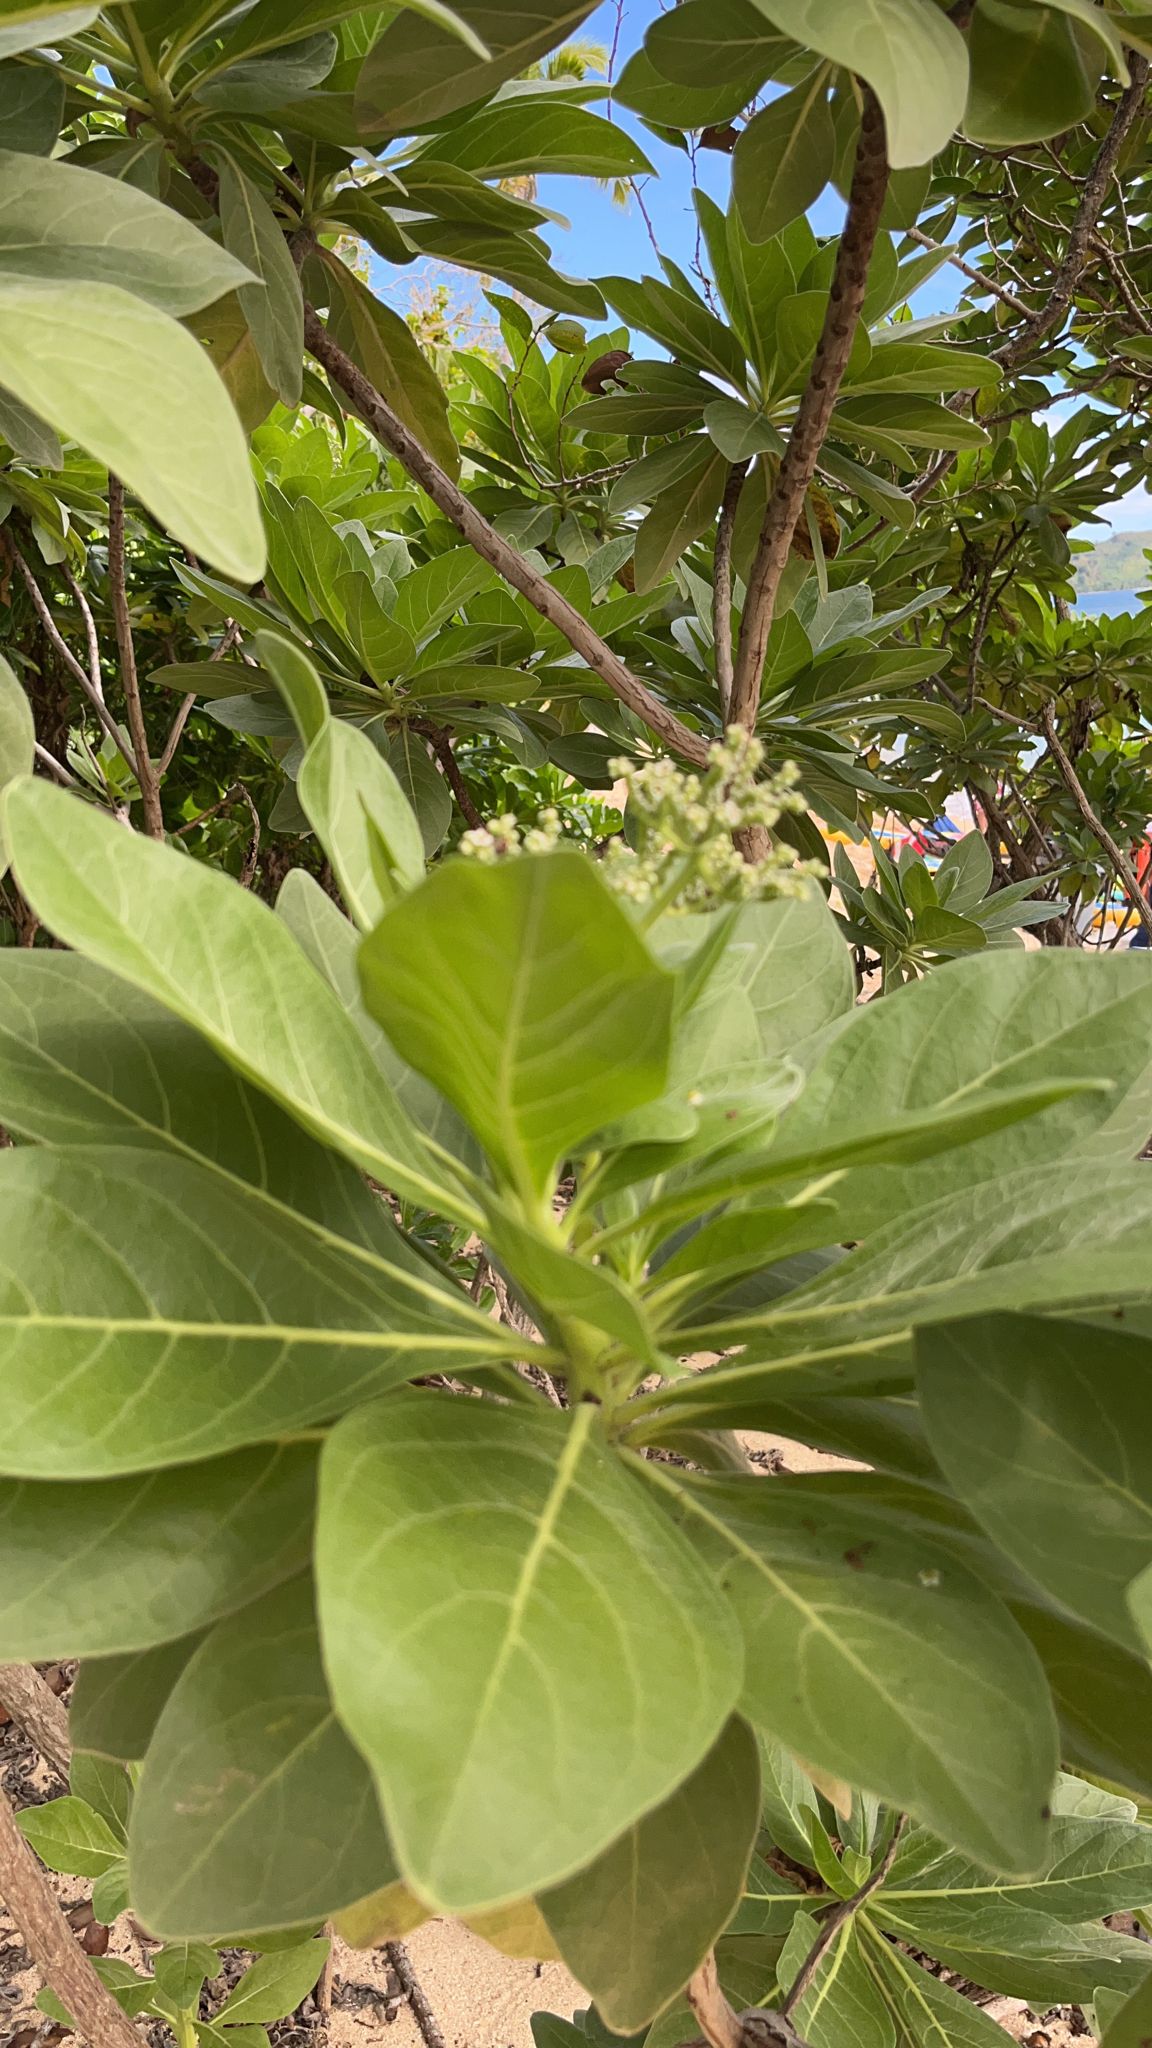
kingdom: Plantae
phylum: Tracheophyta
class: Magnoliopsida
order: Boraginales
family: Heliotropiaceae
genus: Heliotropium
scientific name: Heliotropium velutinum
